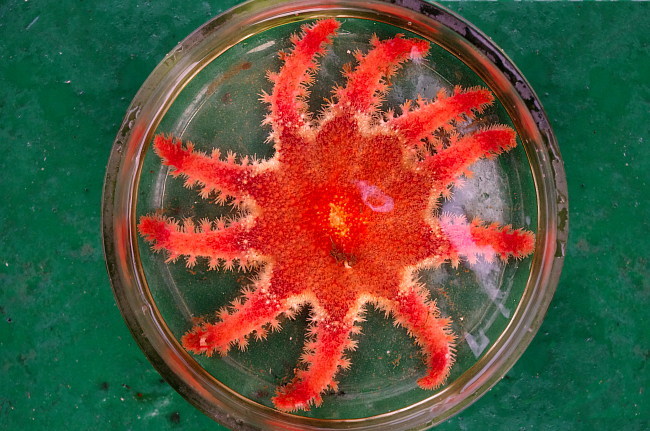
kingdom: Animalia
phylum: Echinodermata
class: Asteroidea
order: Valvatida
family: Solasteridae
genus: Crossaster
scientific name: Crossaster papposus
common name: Common sun star
